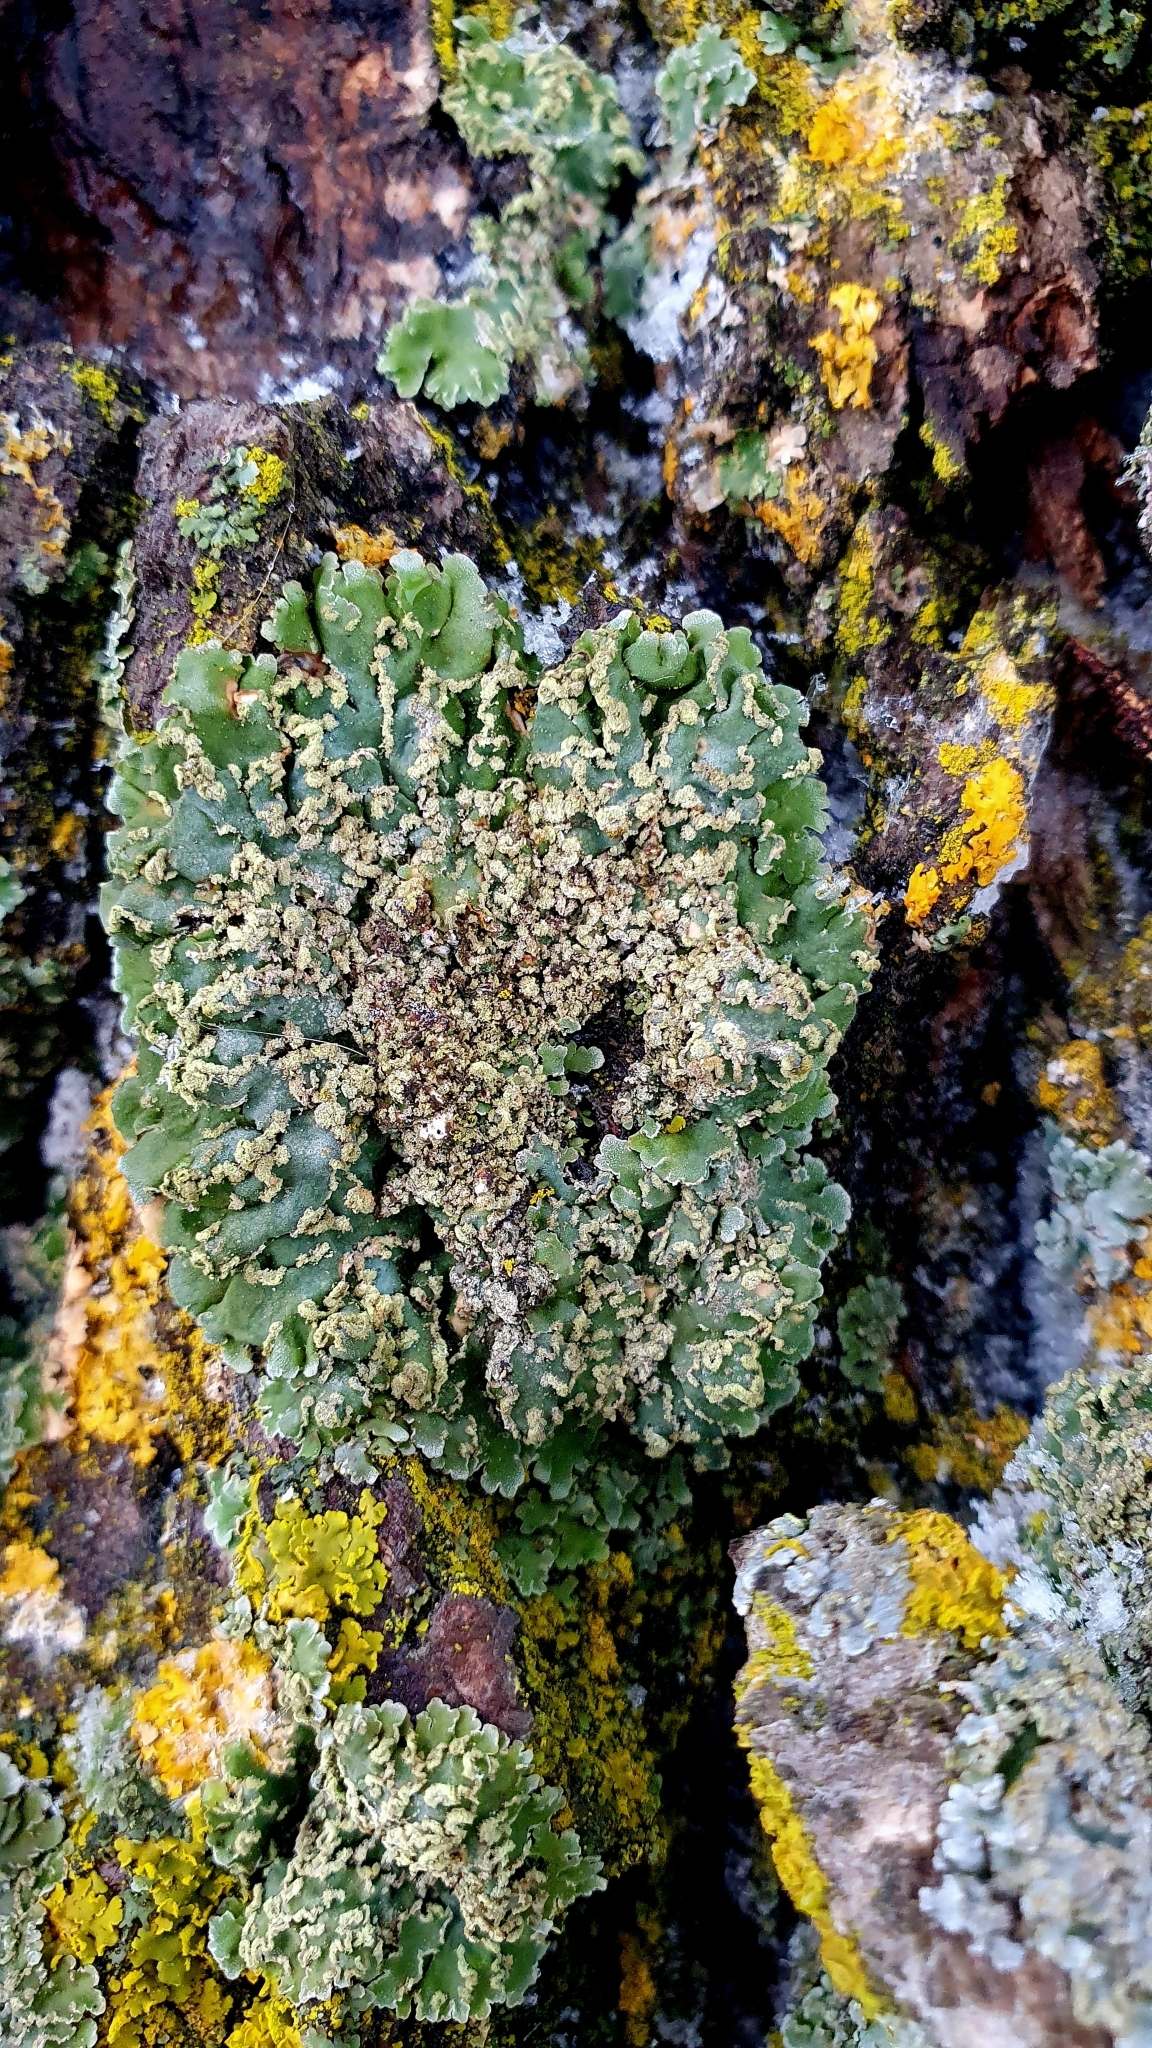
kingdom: Fungi
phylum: Ascomycota
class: Lecanoromycetes
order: Caliciales
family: Physciaceae
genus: Physconia
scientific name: Physconia perisidiosa
